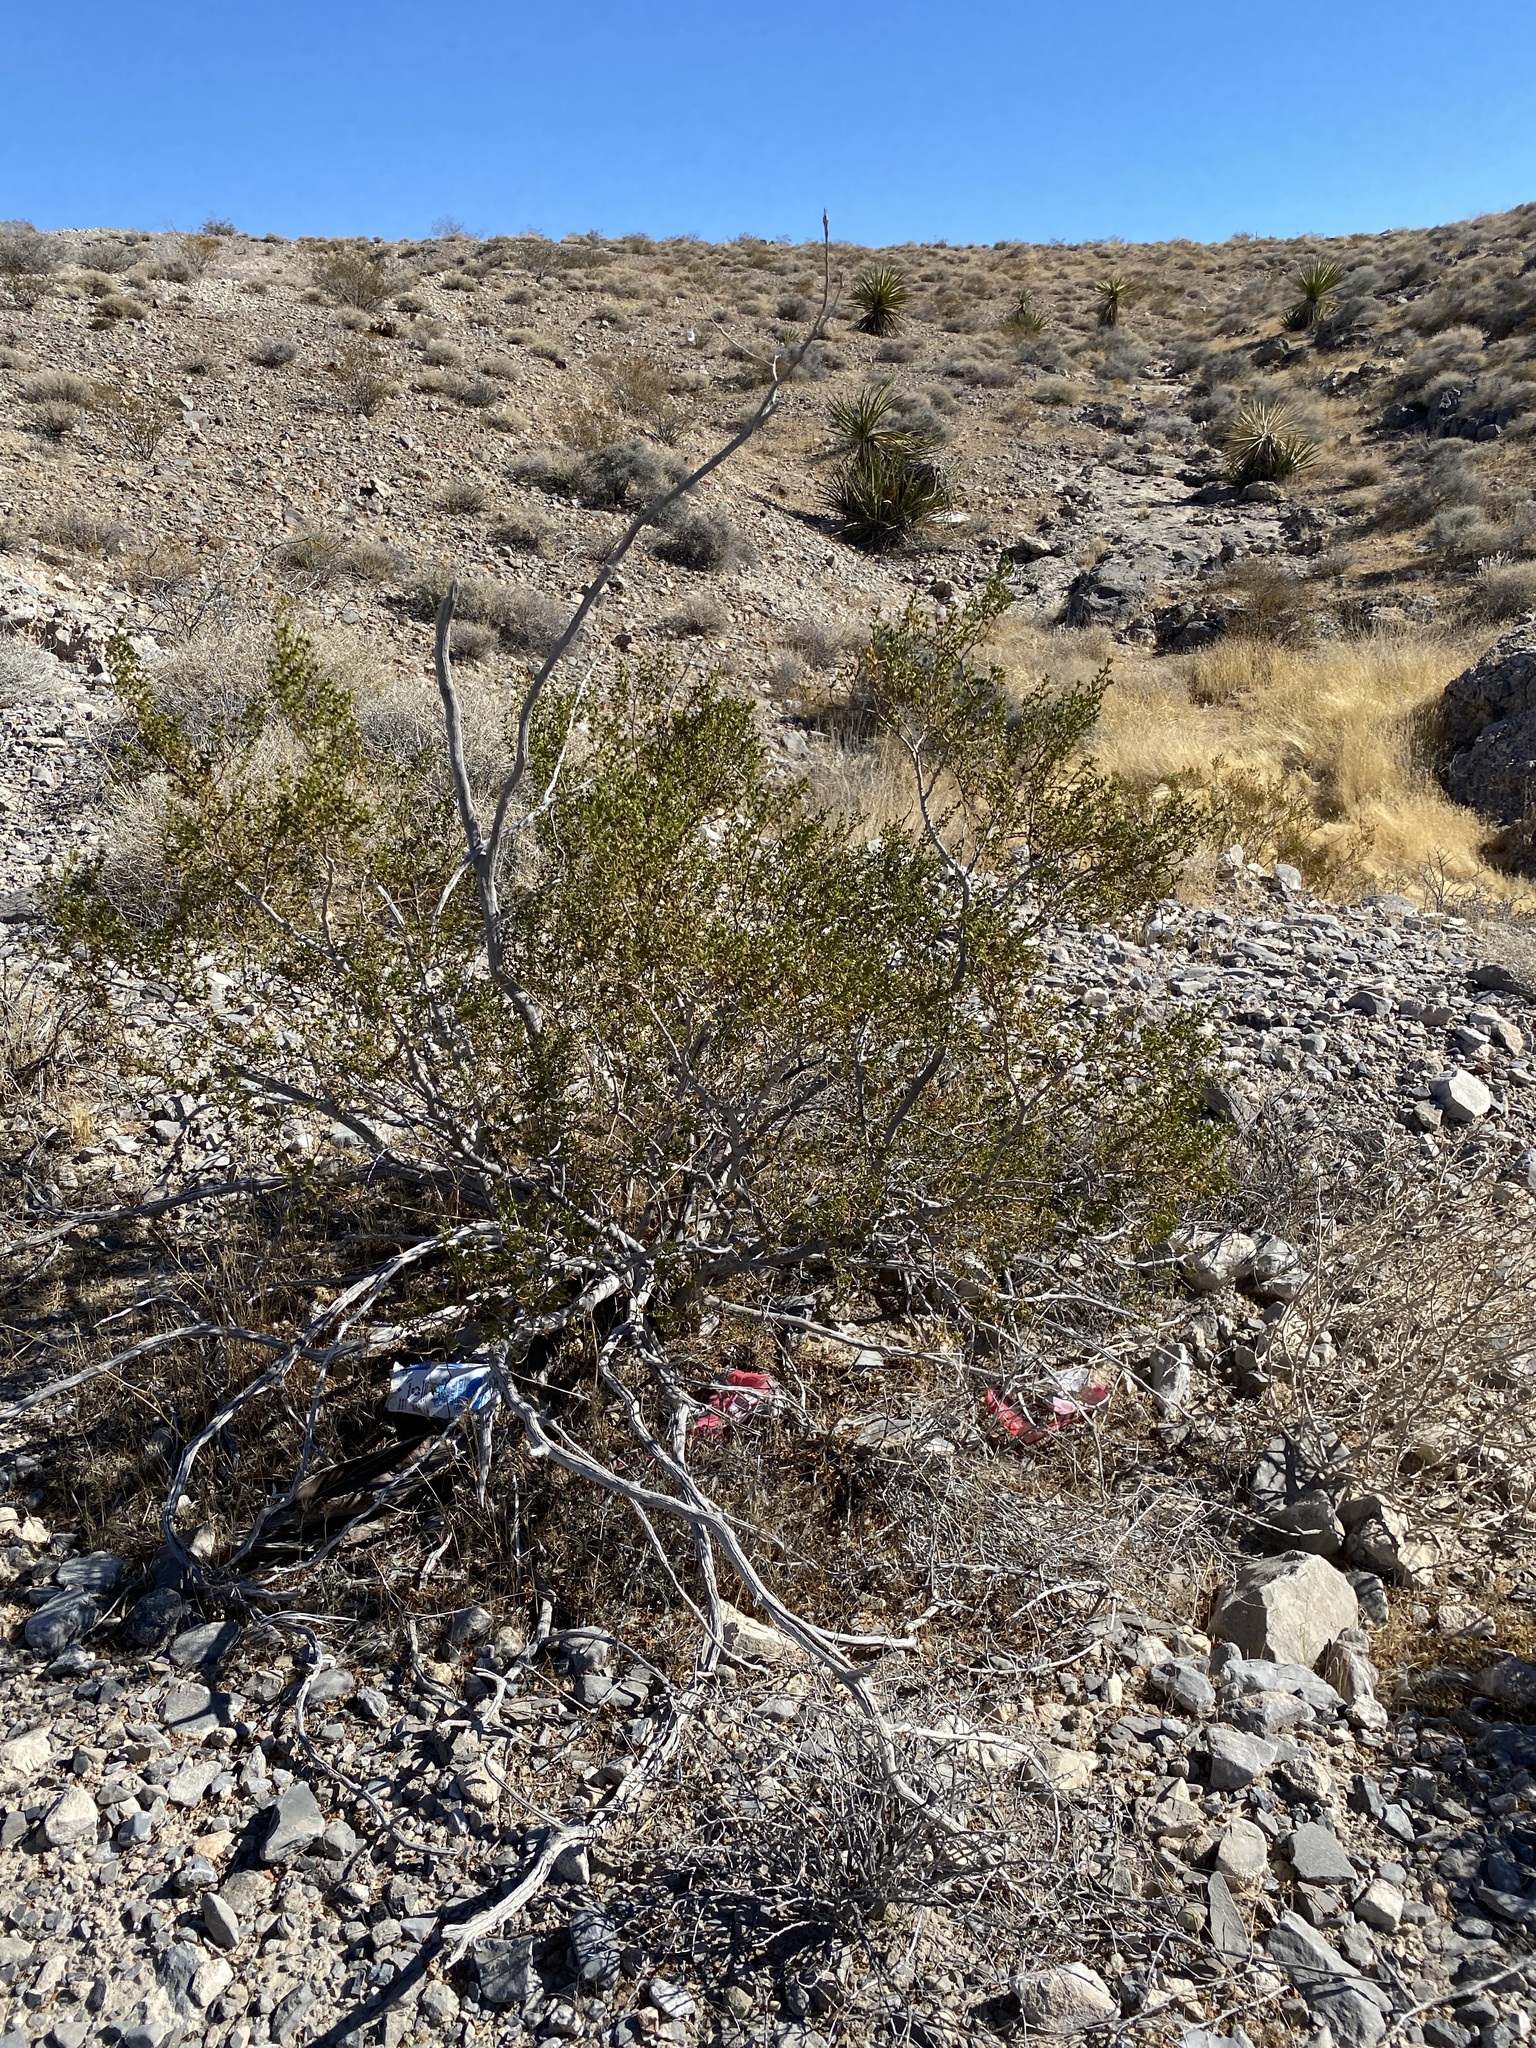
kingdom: Plantae
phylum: Tracheophyta
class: Magnoliopsida
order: Zygophyllales
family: Zygophyllaceae
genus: Larrea
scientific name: Larrea tridentata
